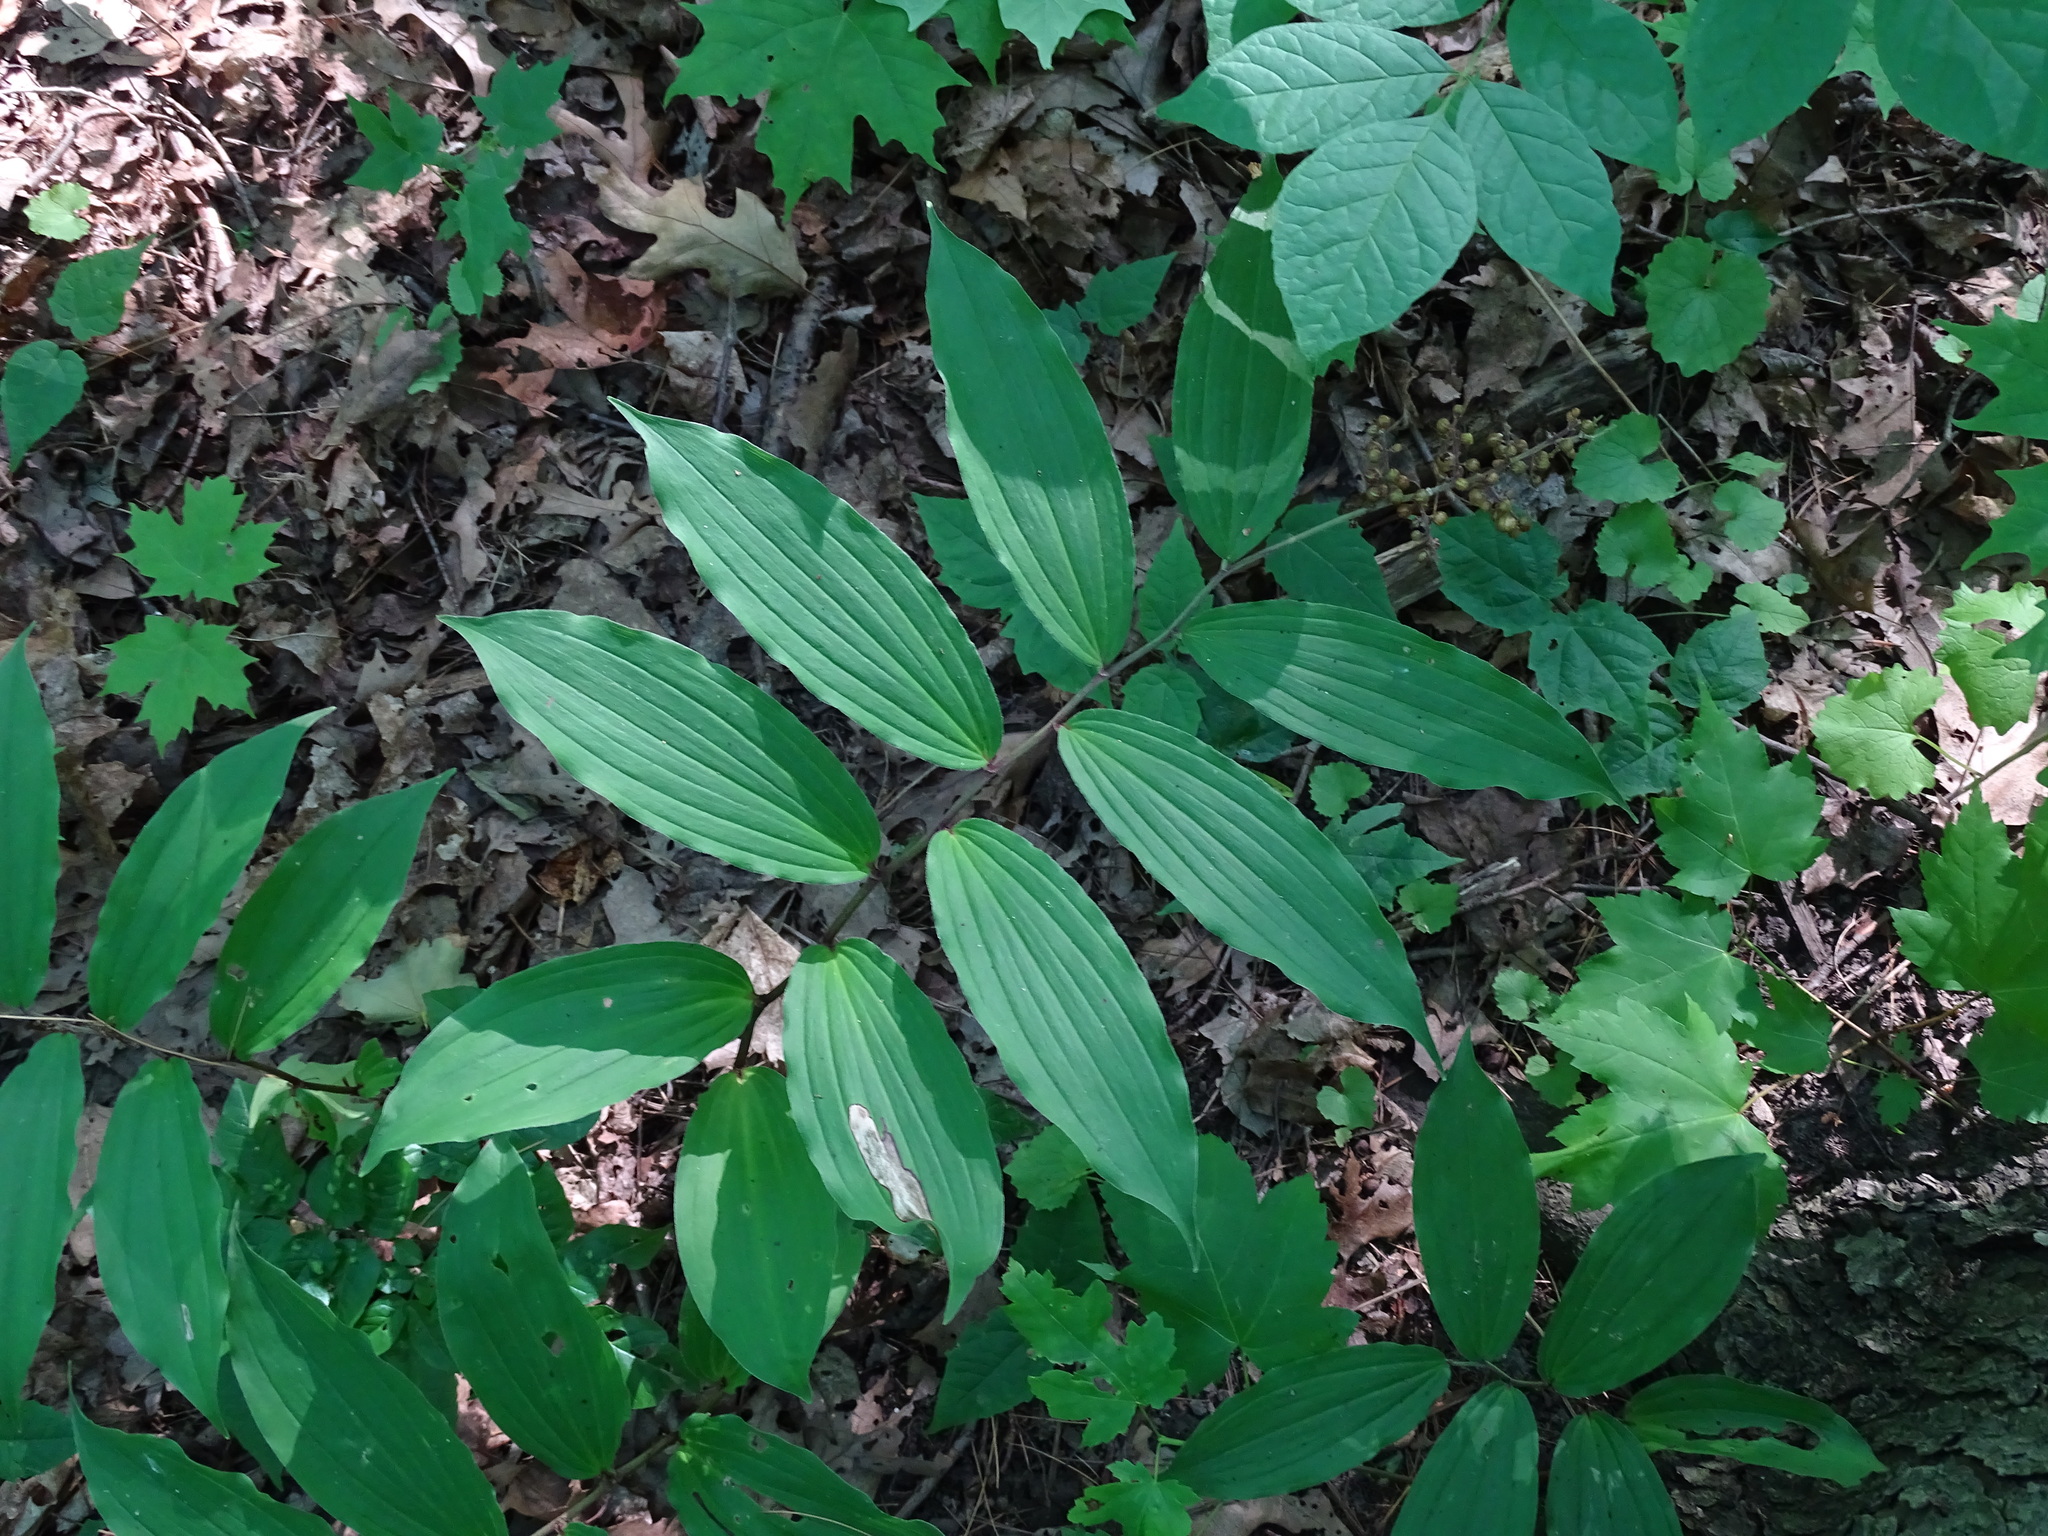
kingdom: Plantae
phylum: Tracheophyta
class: Liliopsida
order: Asparagales
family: Asparagaceae
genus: Maianthemum
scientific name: Maianthemum racemosum
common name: False spikenard
